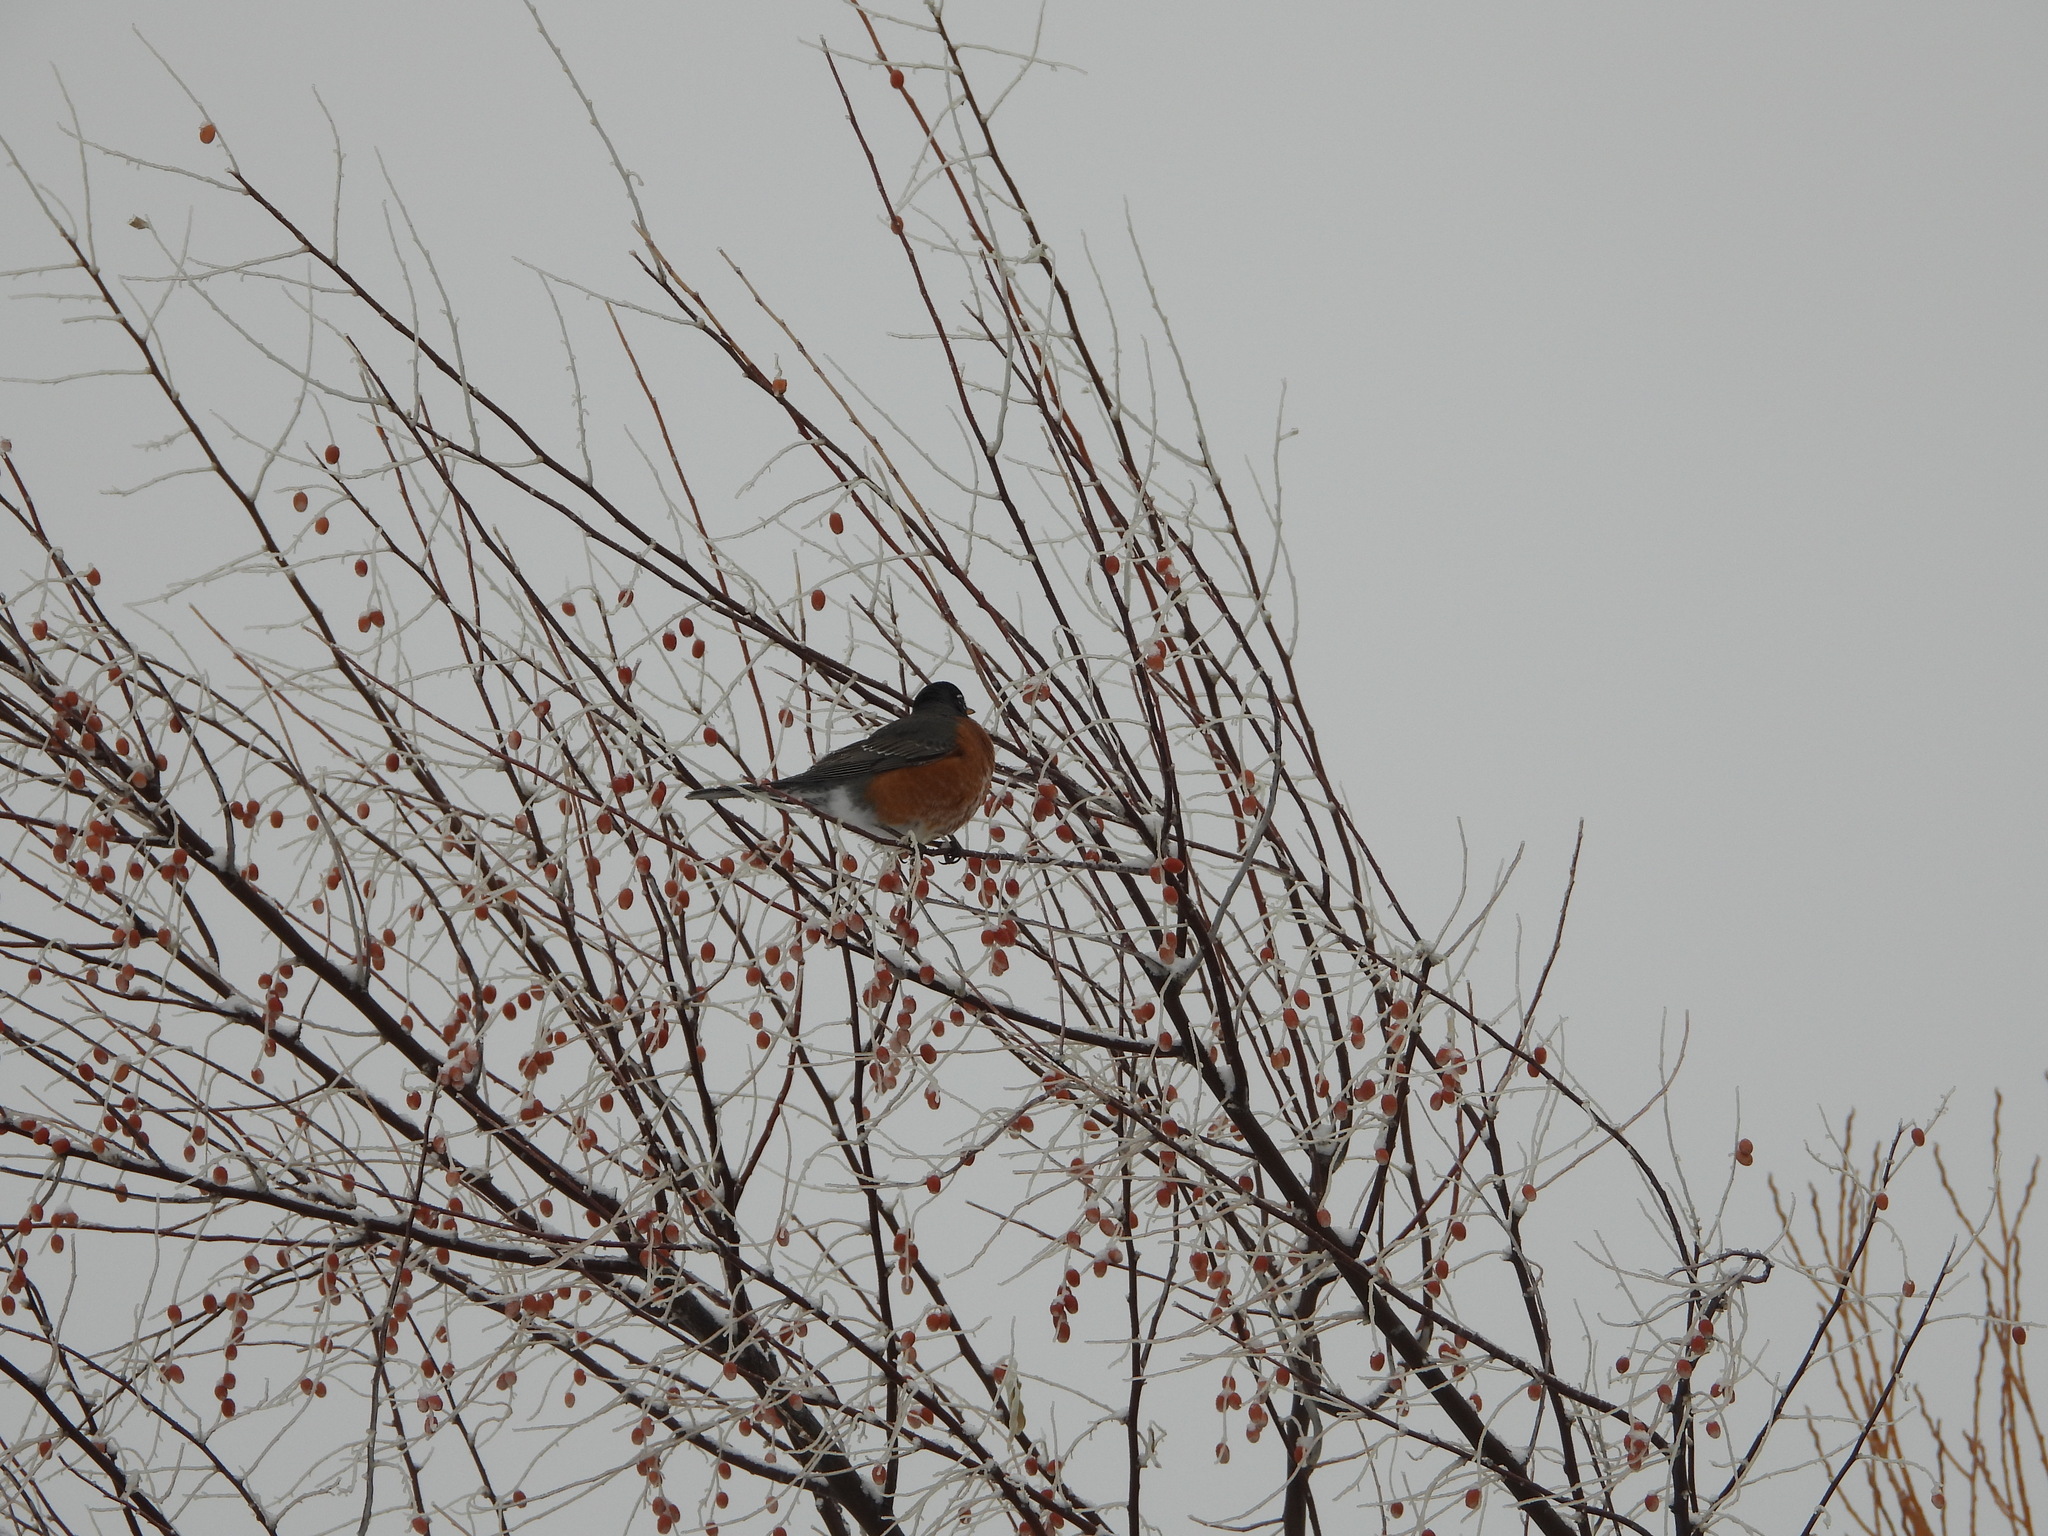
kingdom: Animalia
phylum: Chordata
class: Aves
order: Passeriformes
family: Turdidae
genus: Turdus
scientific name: Turdus migratorius
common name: American robin
